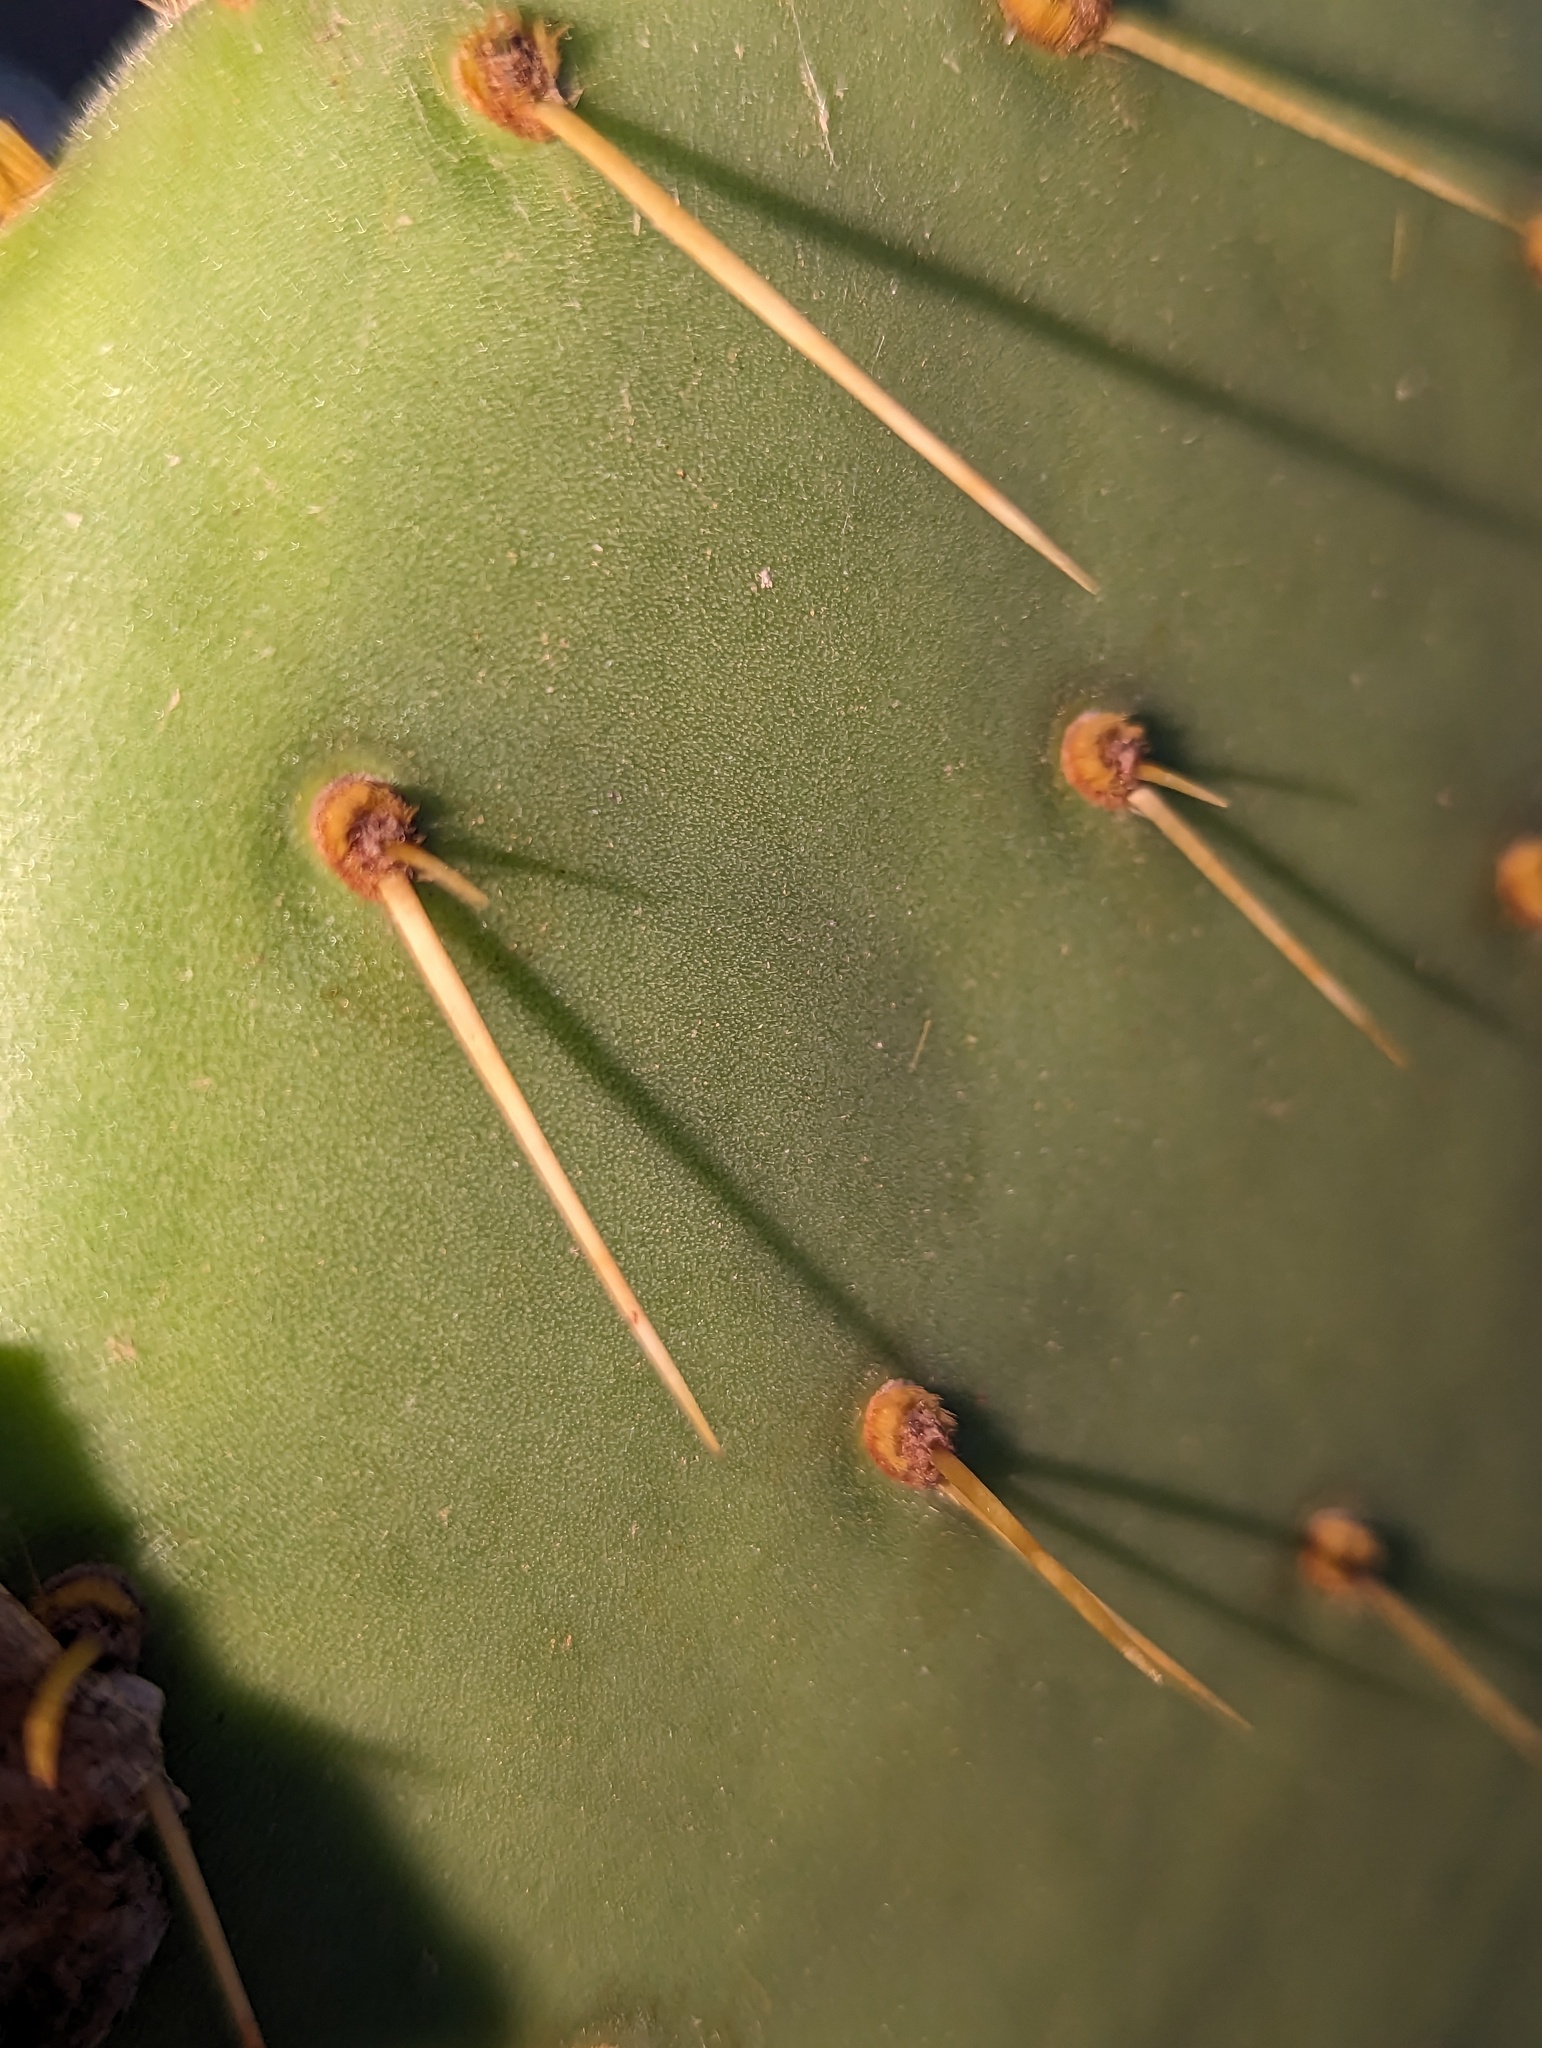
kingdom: Plantae
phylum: Tracheophyta
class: Magnoliopsida
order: Caryophyllales
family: Cactaceae
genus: Opuntia
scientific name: Opuntia caboensis
